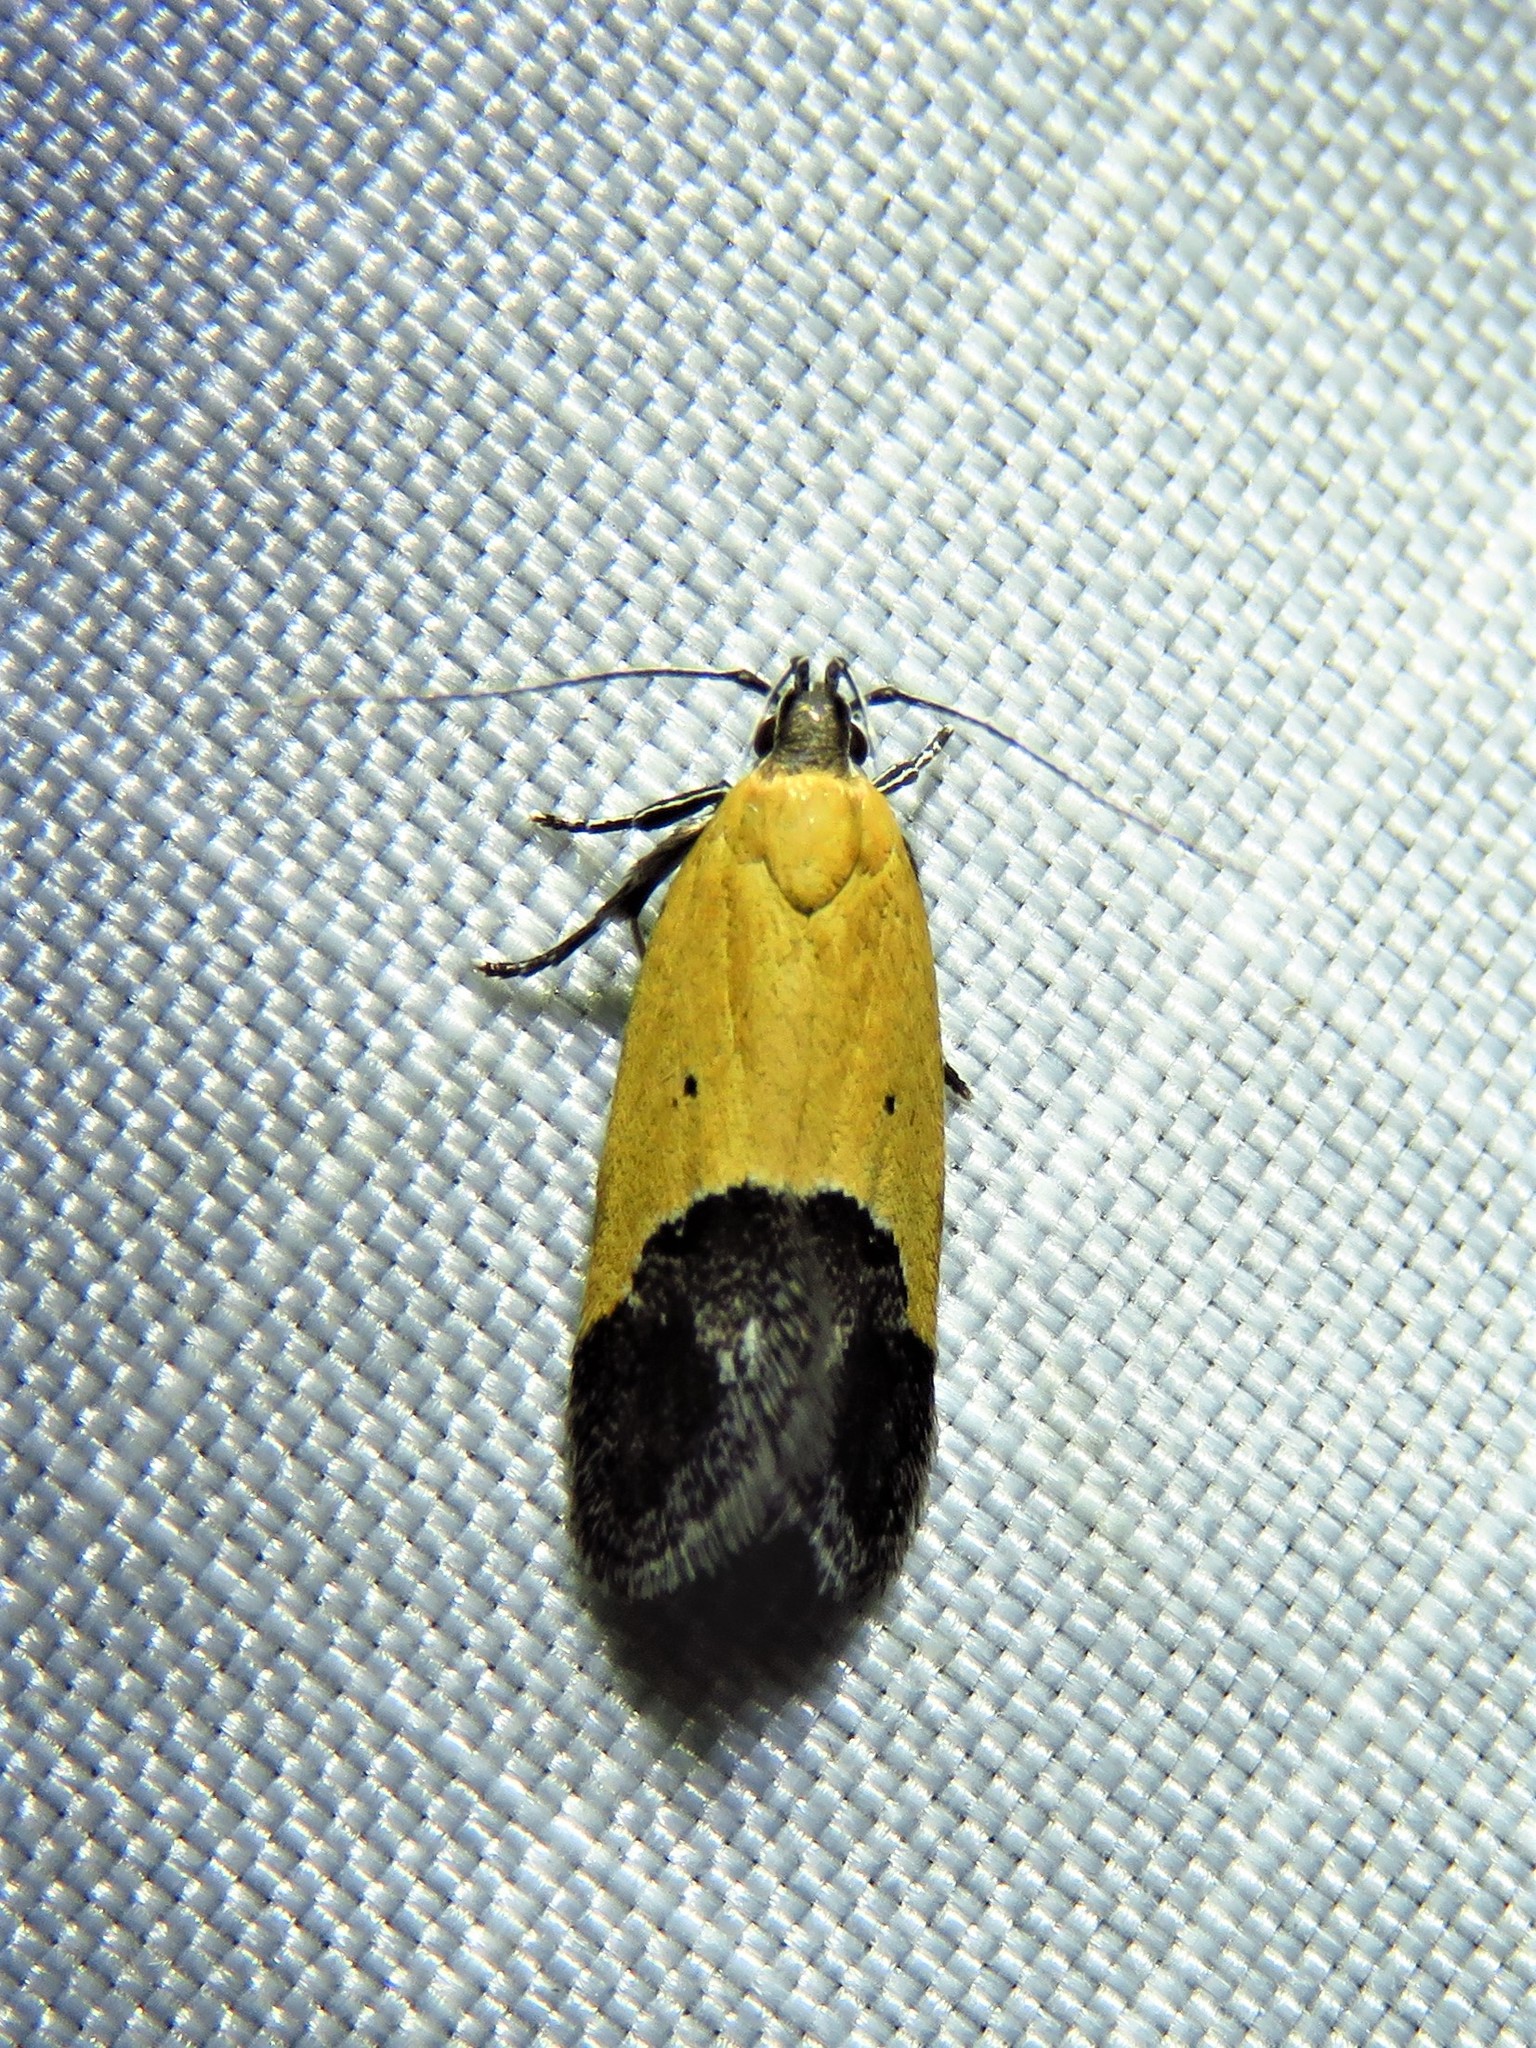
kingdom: Animalia
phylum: Arthropoda
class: Insecta
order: Lepidoptera
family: Momphidae
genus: Triclonella
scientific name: Triclonella pergandeella
